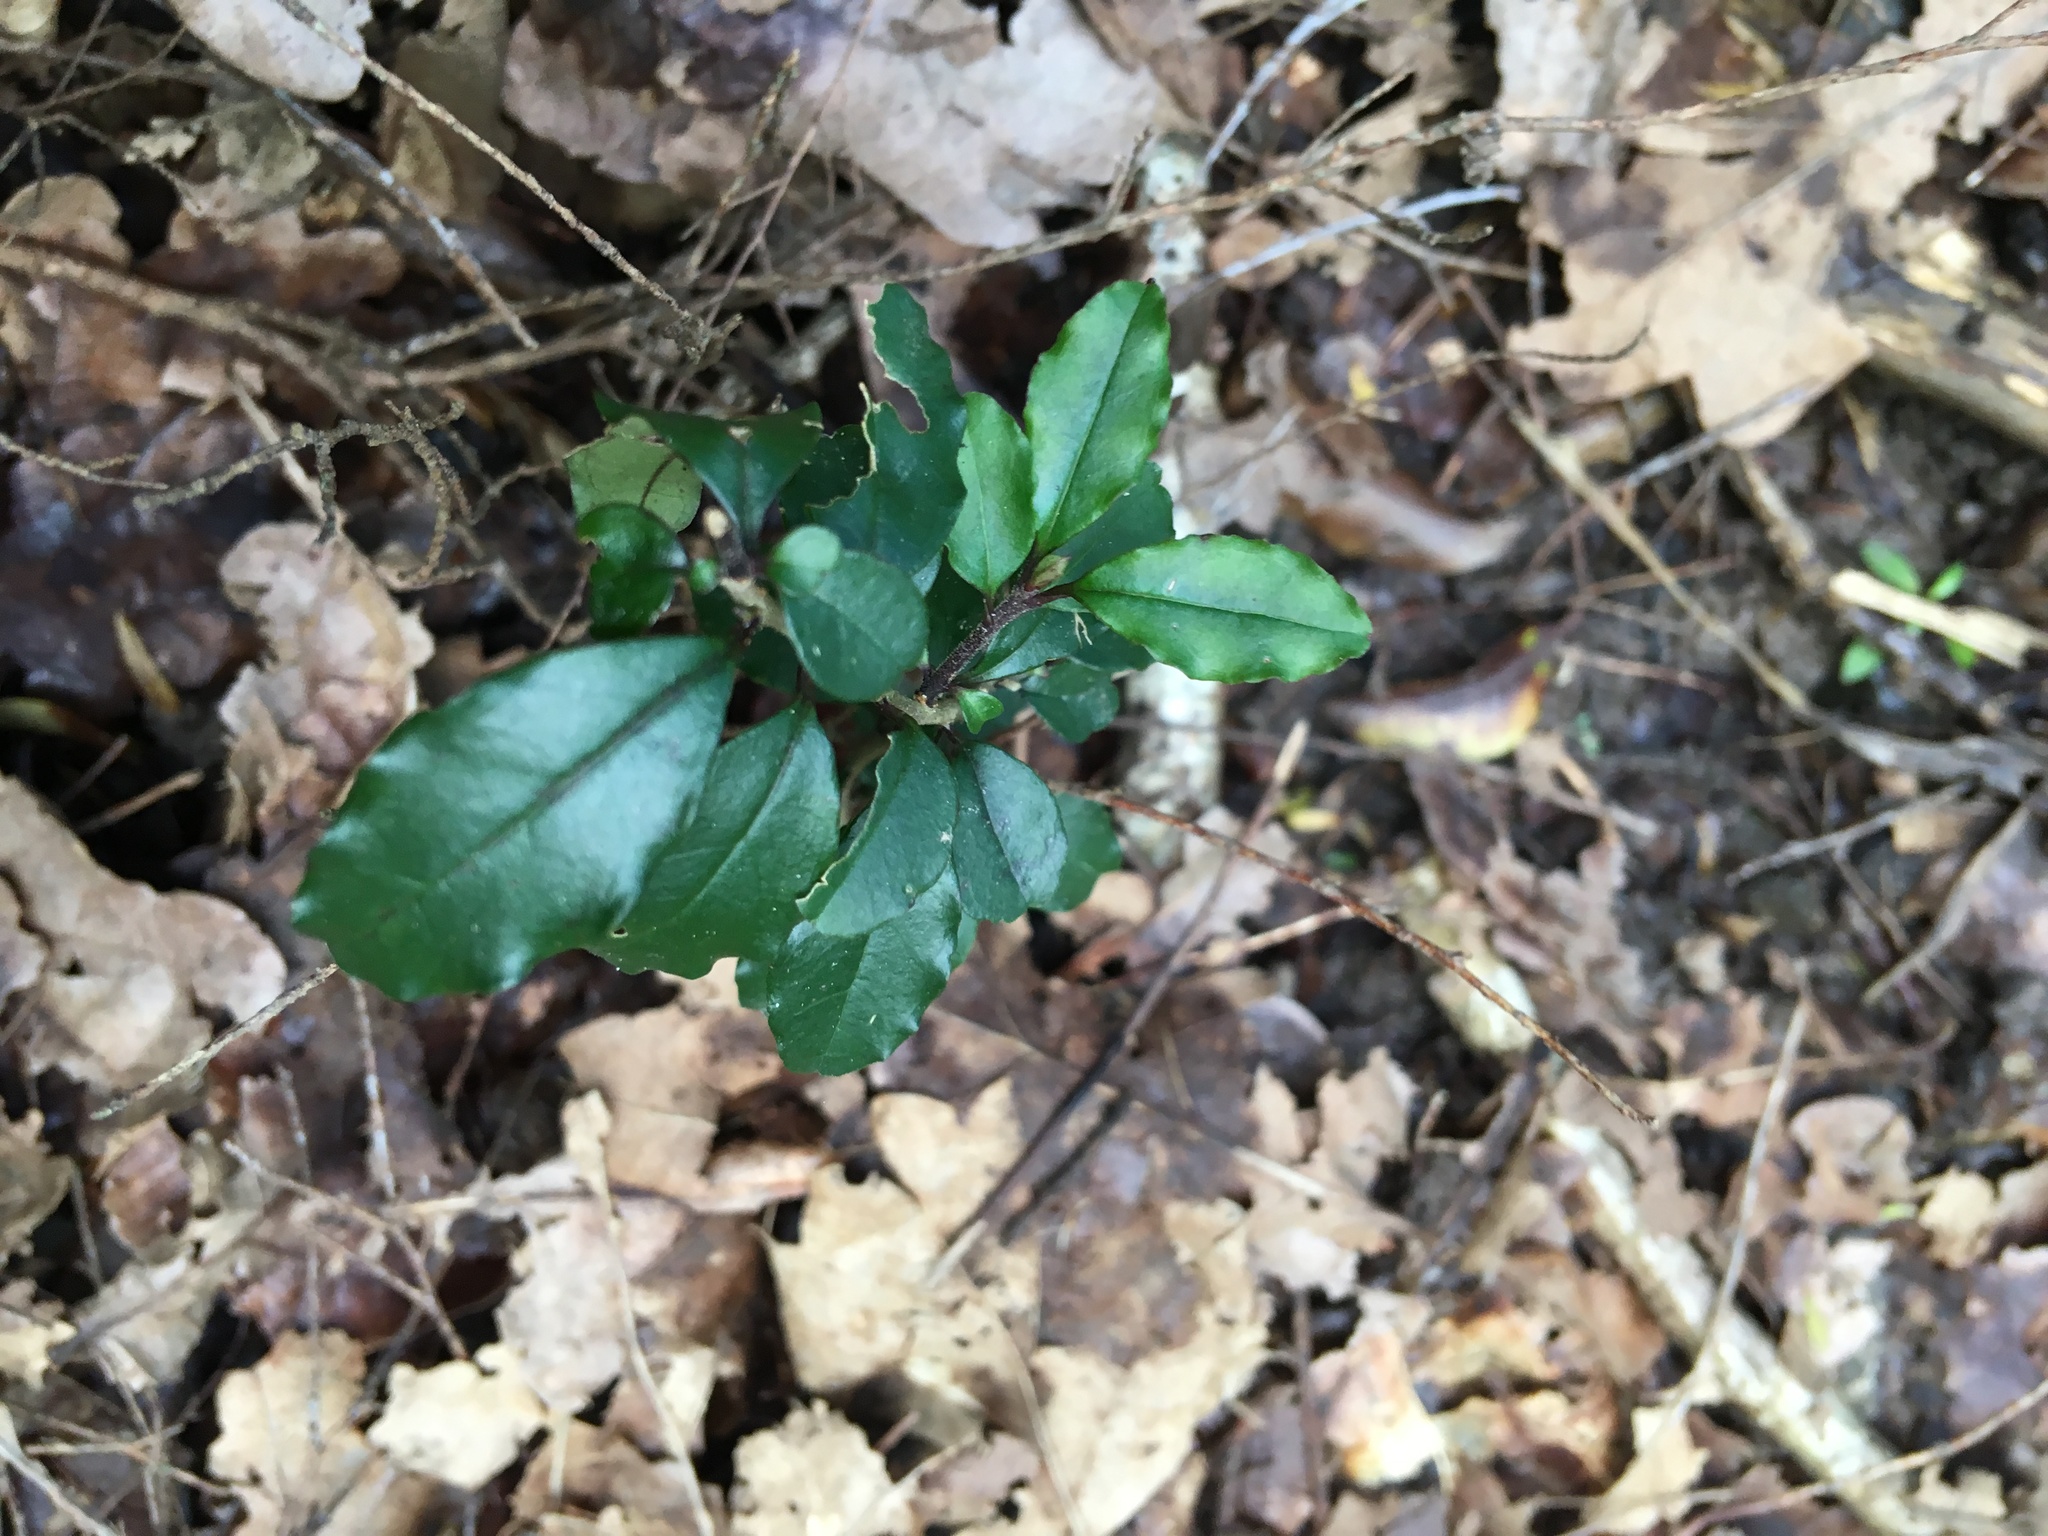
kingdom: Plantae
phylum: Tracheophyta
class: Magnoliopsida
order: Lamiales
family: Oleaceae
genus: Ligustrum
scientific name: Ligustrum sinense
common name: Chinese privet
